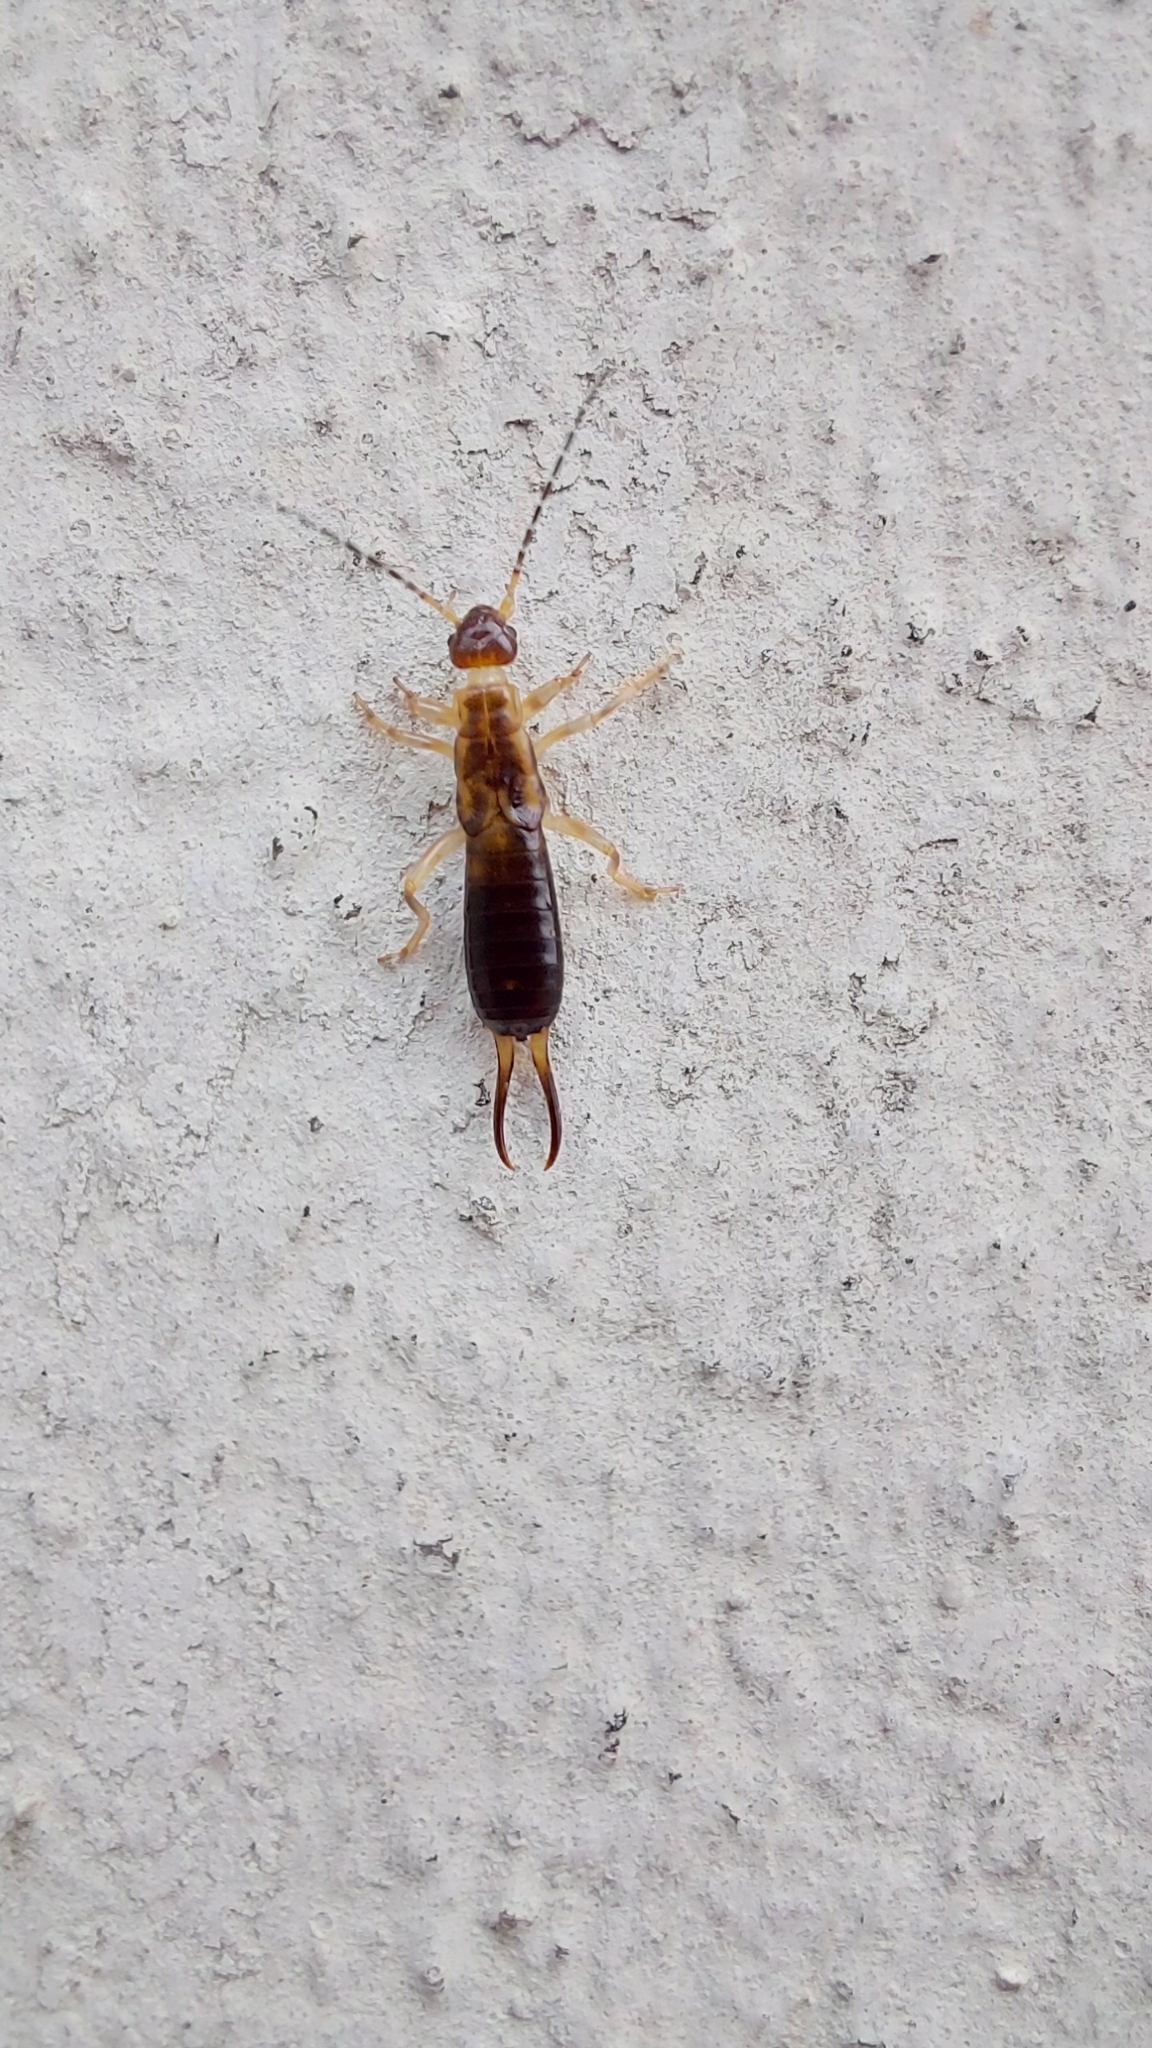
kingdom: Animalia
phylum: Arthropoda
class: Insecta
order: Dermaptera
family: Forficulidae
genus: Forficula
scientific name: Forficula
